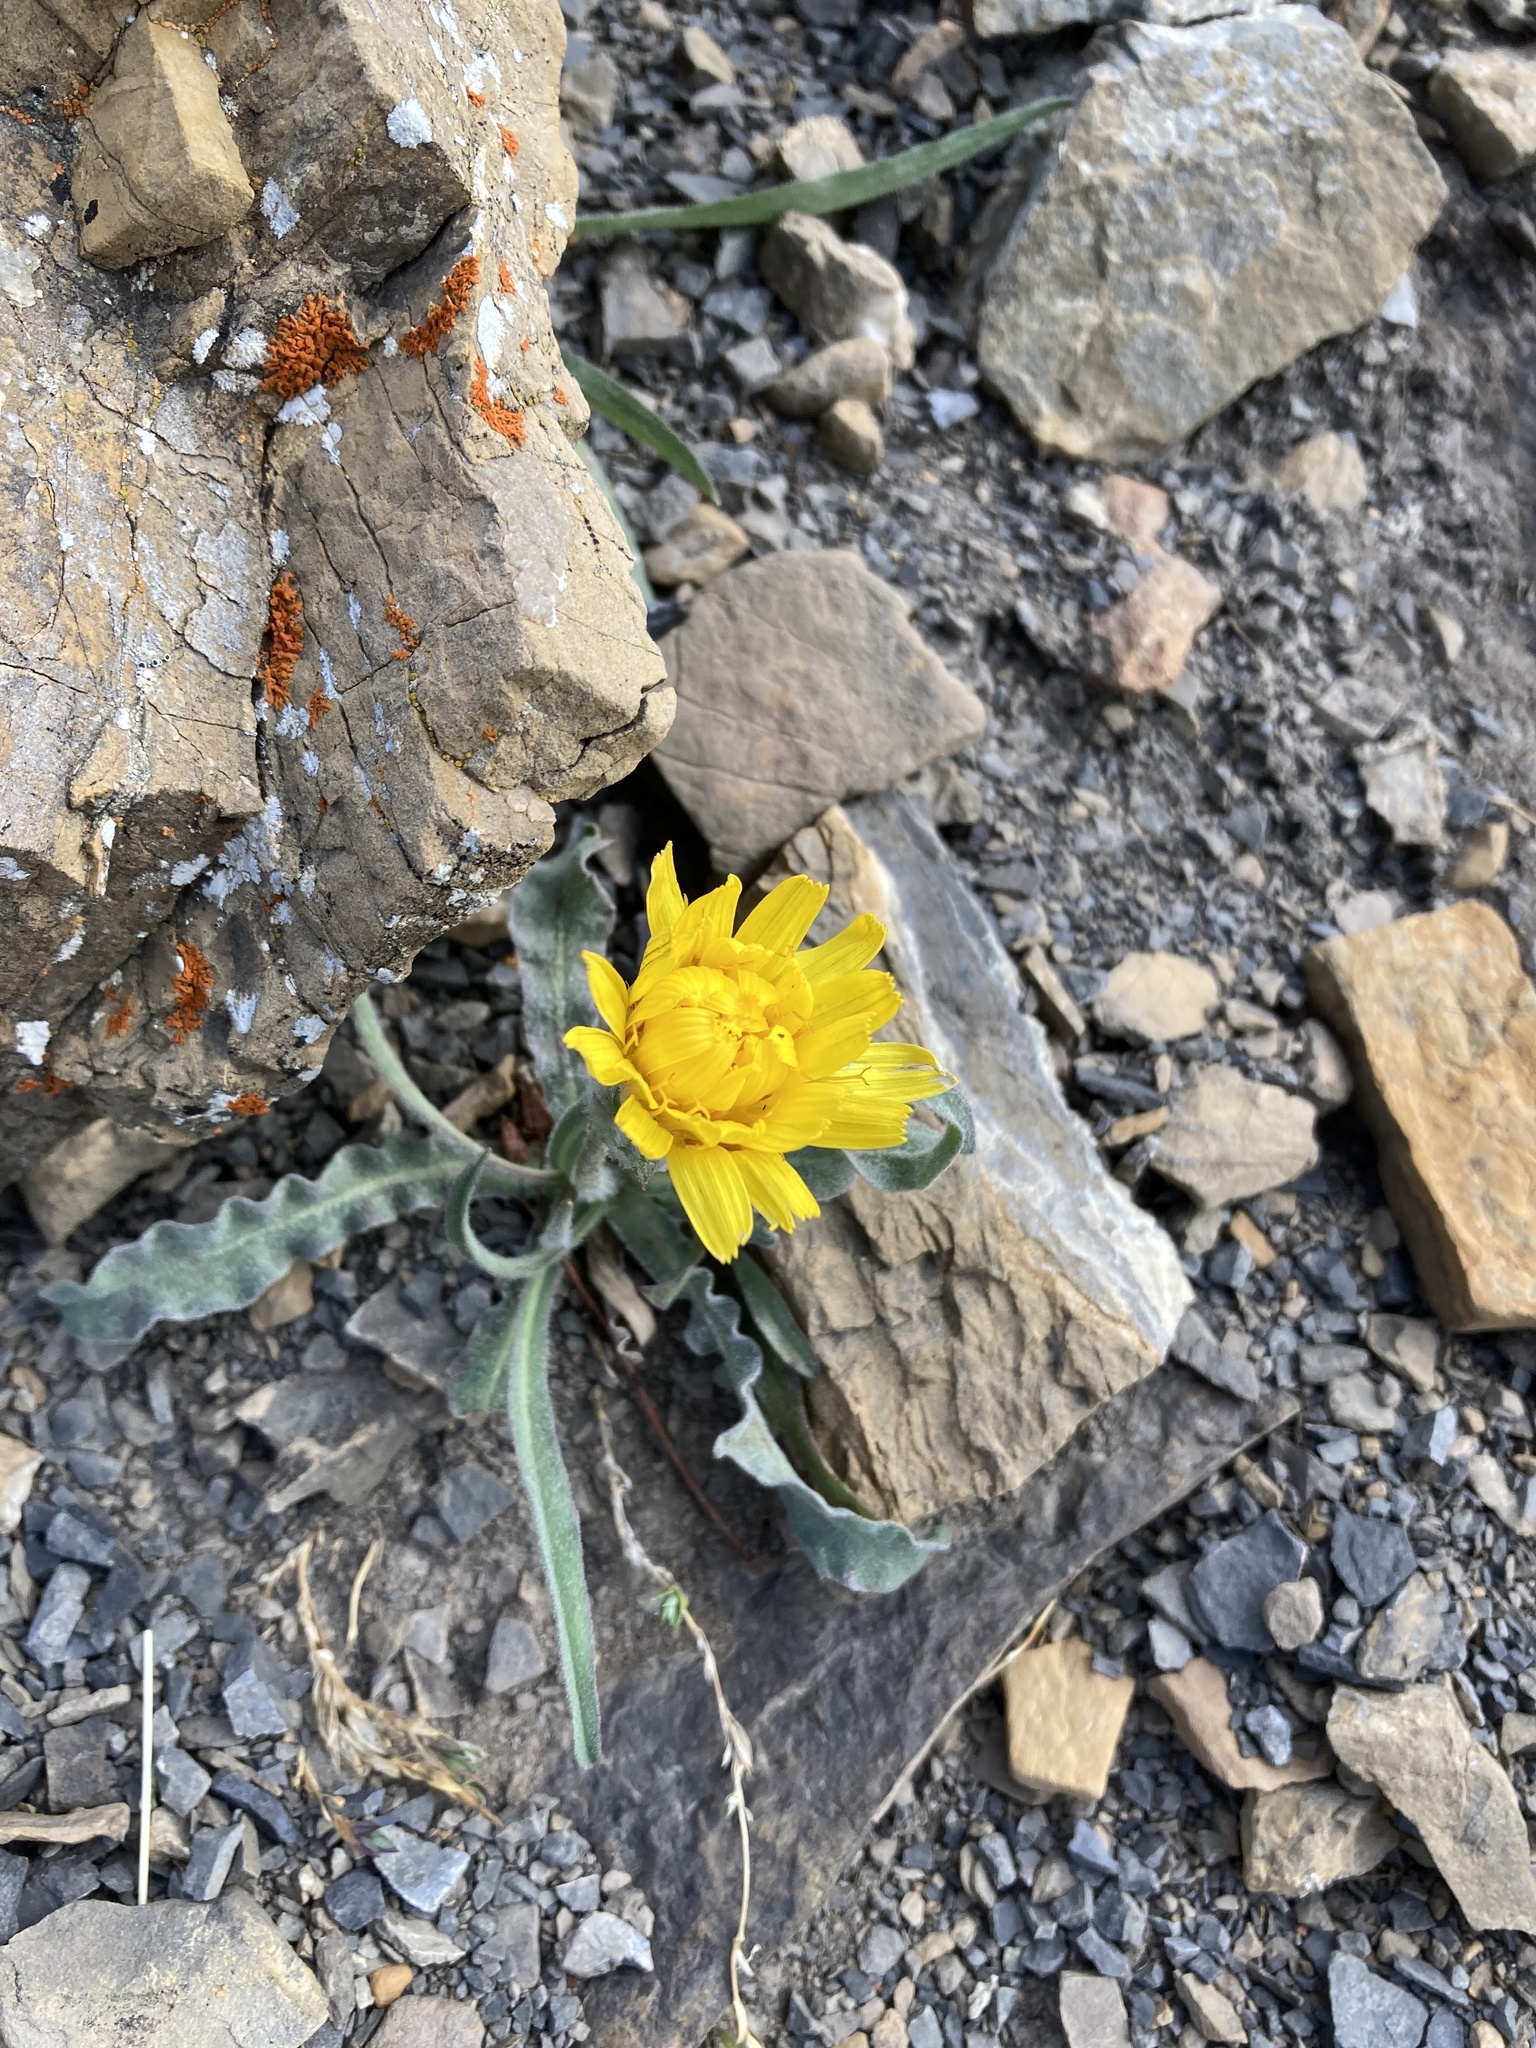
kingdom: Plantae
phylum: Tracheophyta
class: Magnoliopsida
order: Asterales
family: Asteraceae
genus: Agoseris
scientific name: Agoseris glauca
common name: Prairie agoseris
